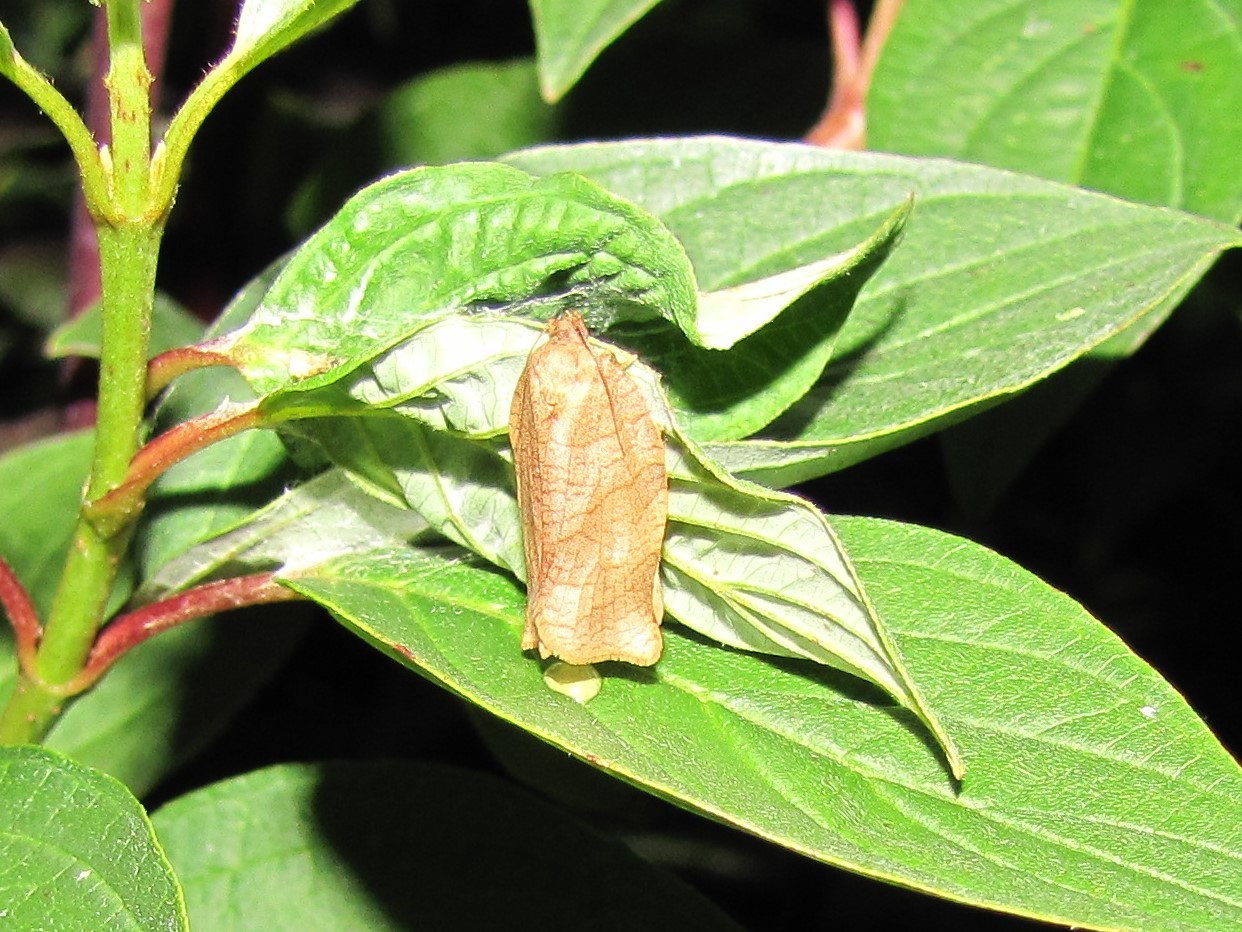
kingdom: Animalia
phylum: Arthropoda
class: Insecta
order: Lepidoptera
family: Tortricidae
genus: Choristoneura
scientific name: Choristoneura rosaceana
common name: Oblique-banded leafroller moth
